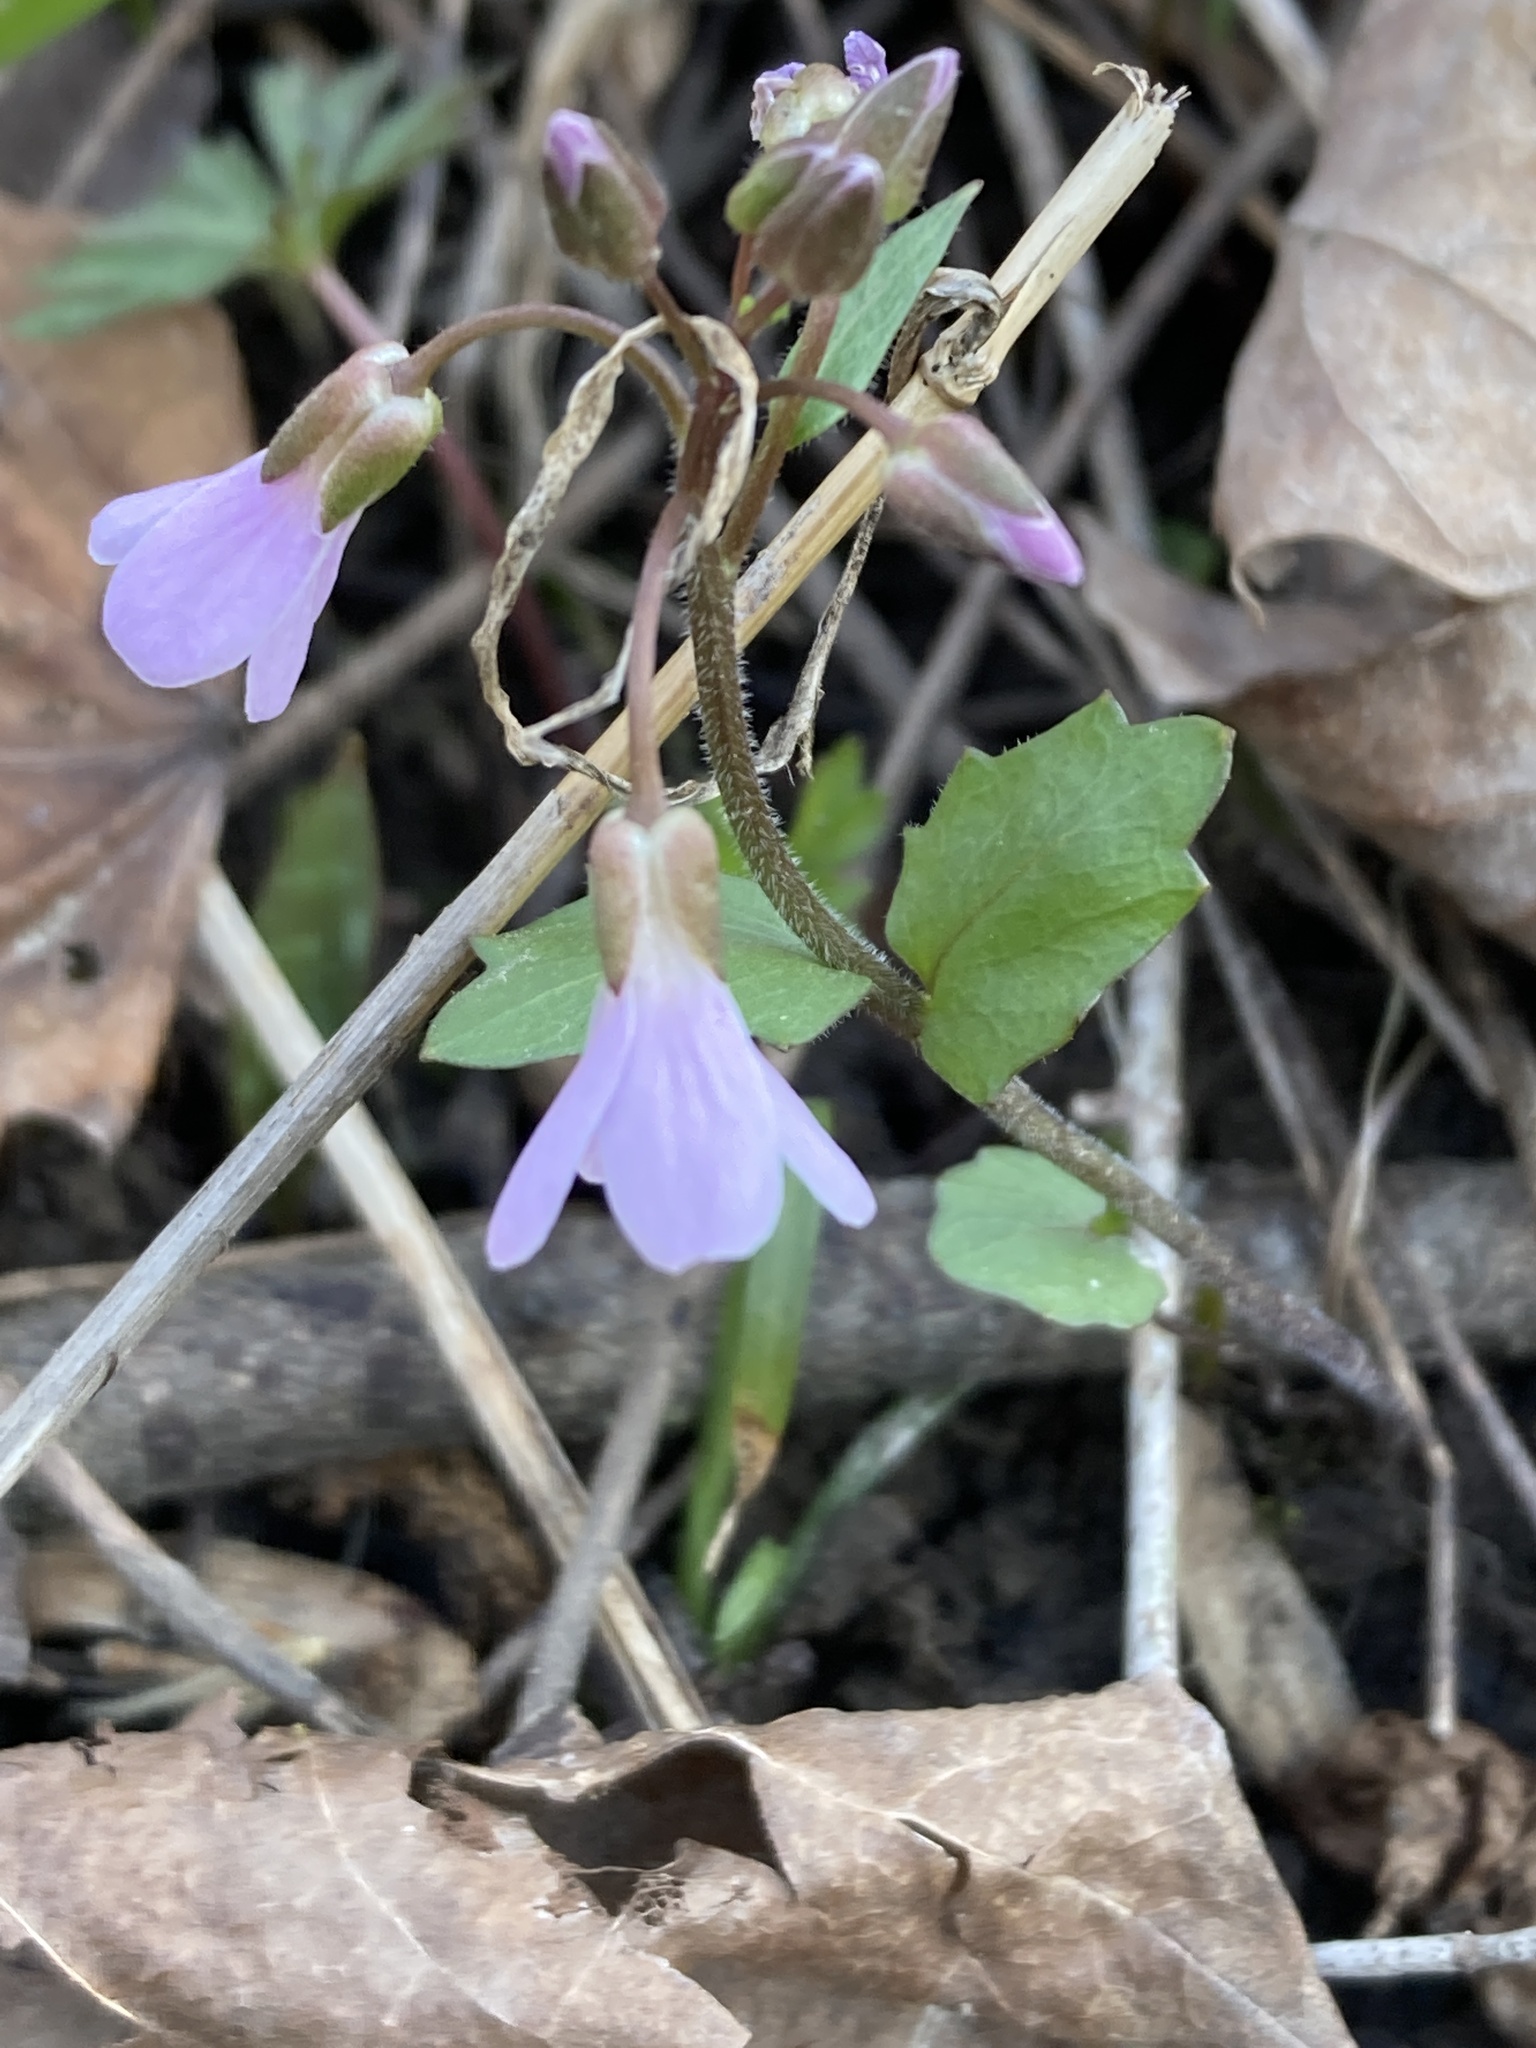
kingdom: Plantae
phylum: Tracheophyta
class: Magnoliopsida
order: Brassicales
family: Brassicaceae
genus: Cardamine
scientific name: Cardamine douglassii
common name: Purple cress
